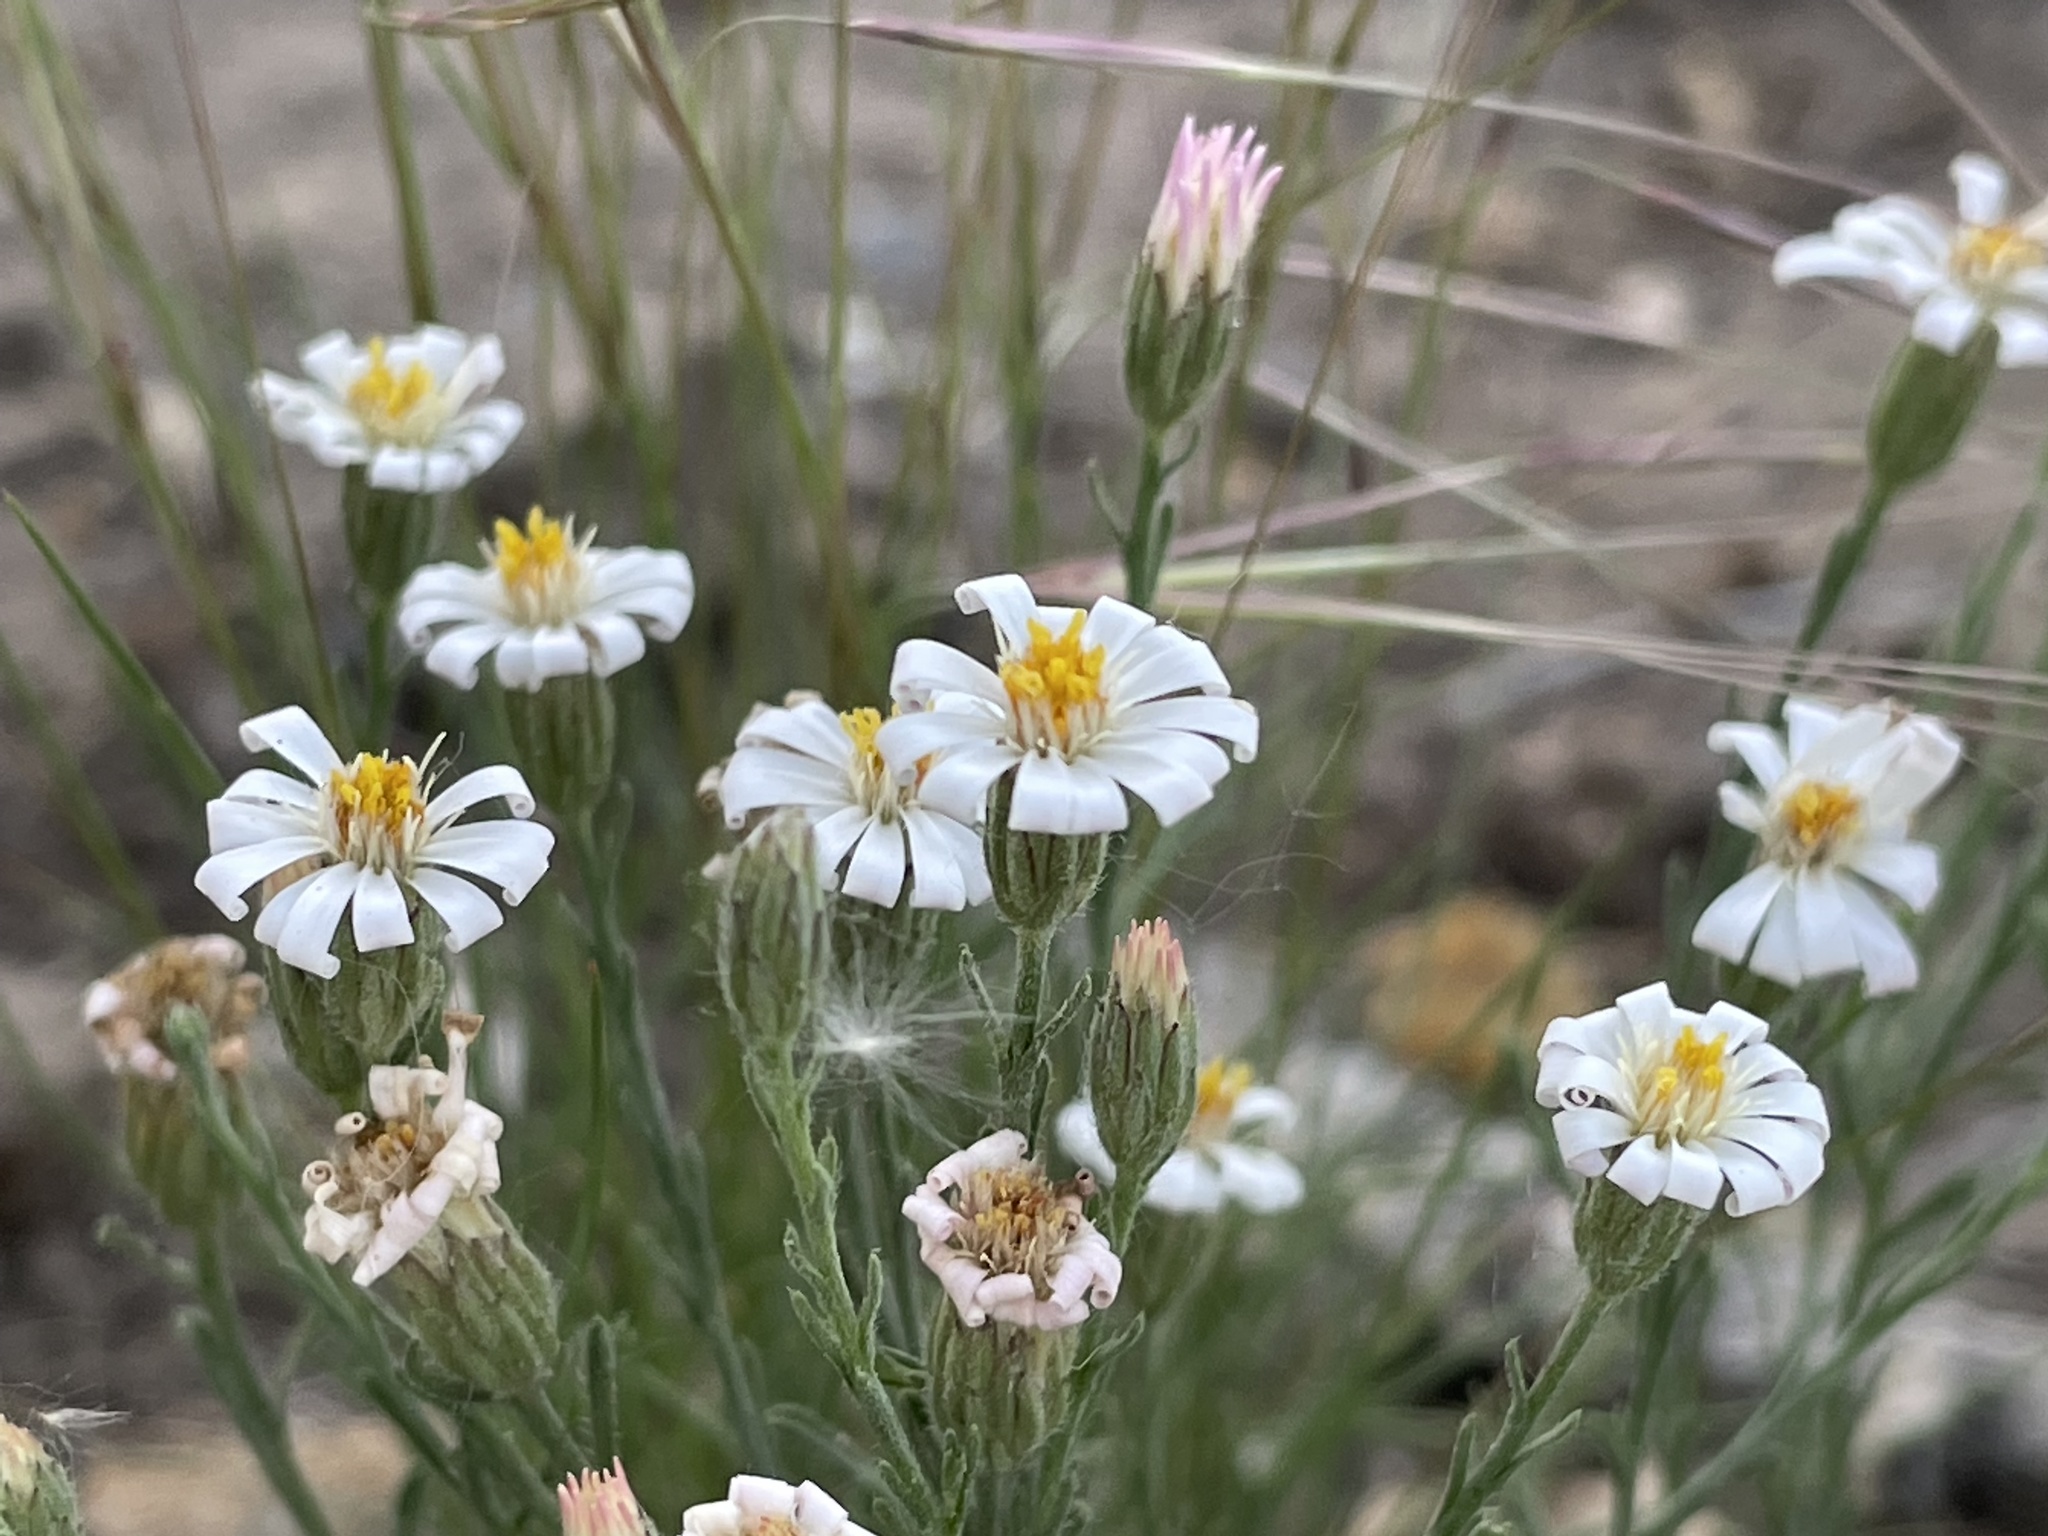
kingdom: Plantae
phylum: Tracheophyta
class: Magnoliopsida
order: Asterales
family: Asteraceae
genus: Chaetopappa
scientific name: Chaetopappa ericoides
